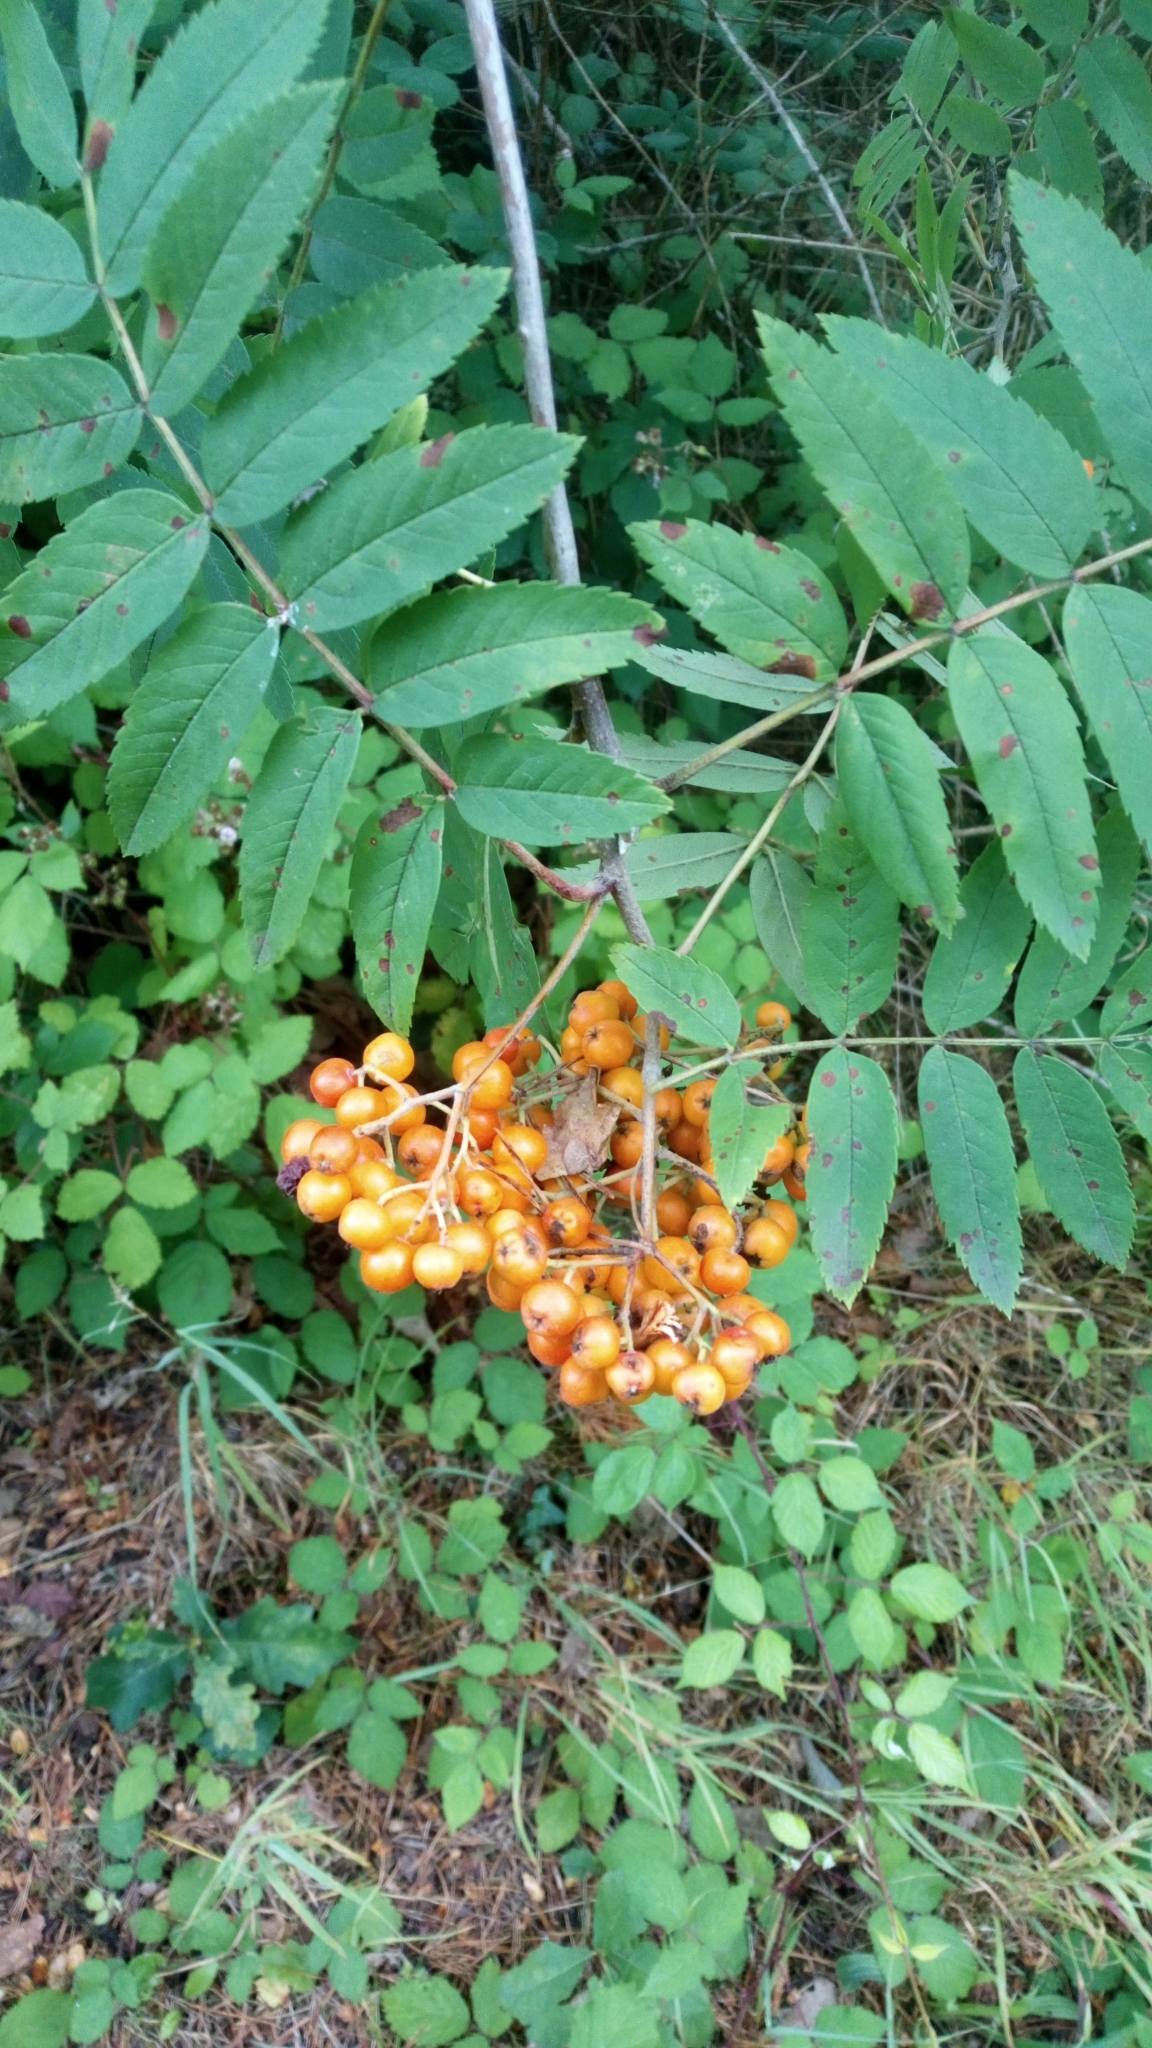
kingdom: Plantae
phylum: Tracheophyta
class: Magnoliopsida
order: Rosales
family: Rosaceae
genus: Sorbus
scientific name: Sorbus aucuparia
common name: Rowan
